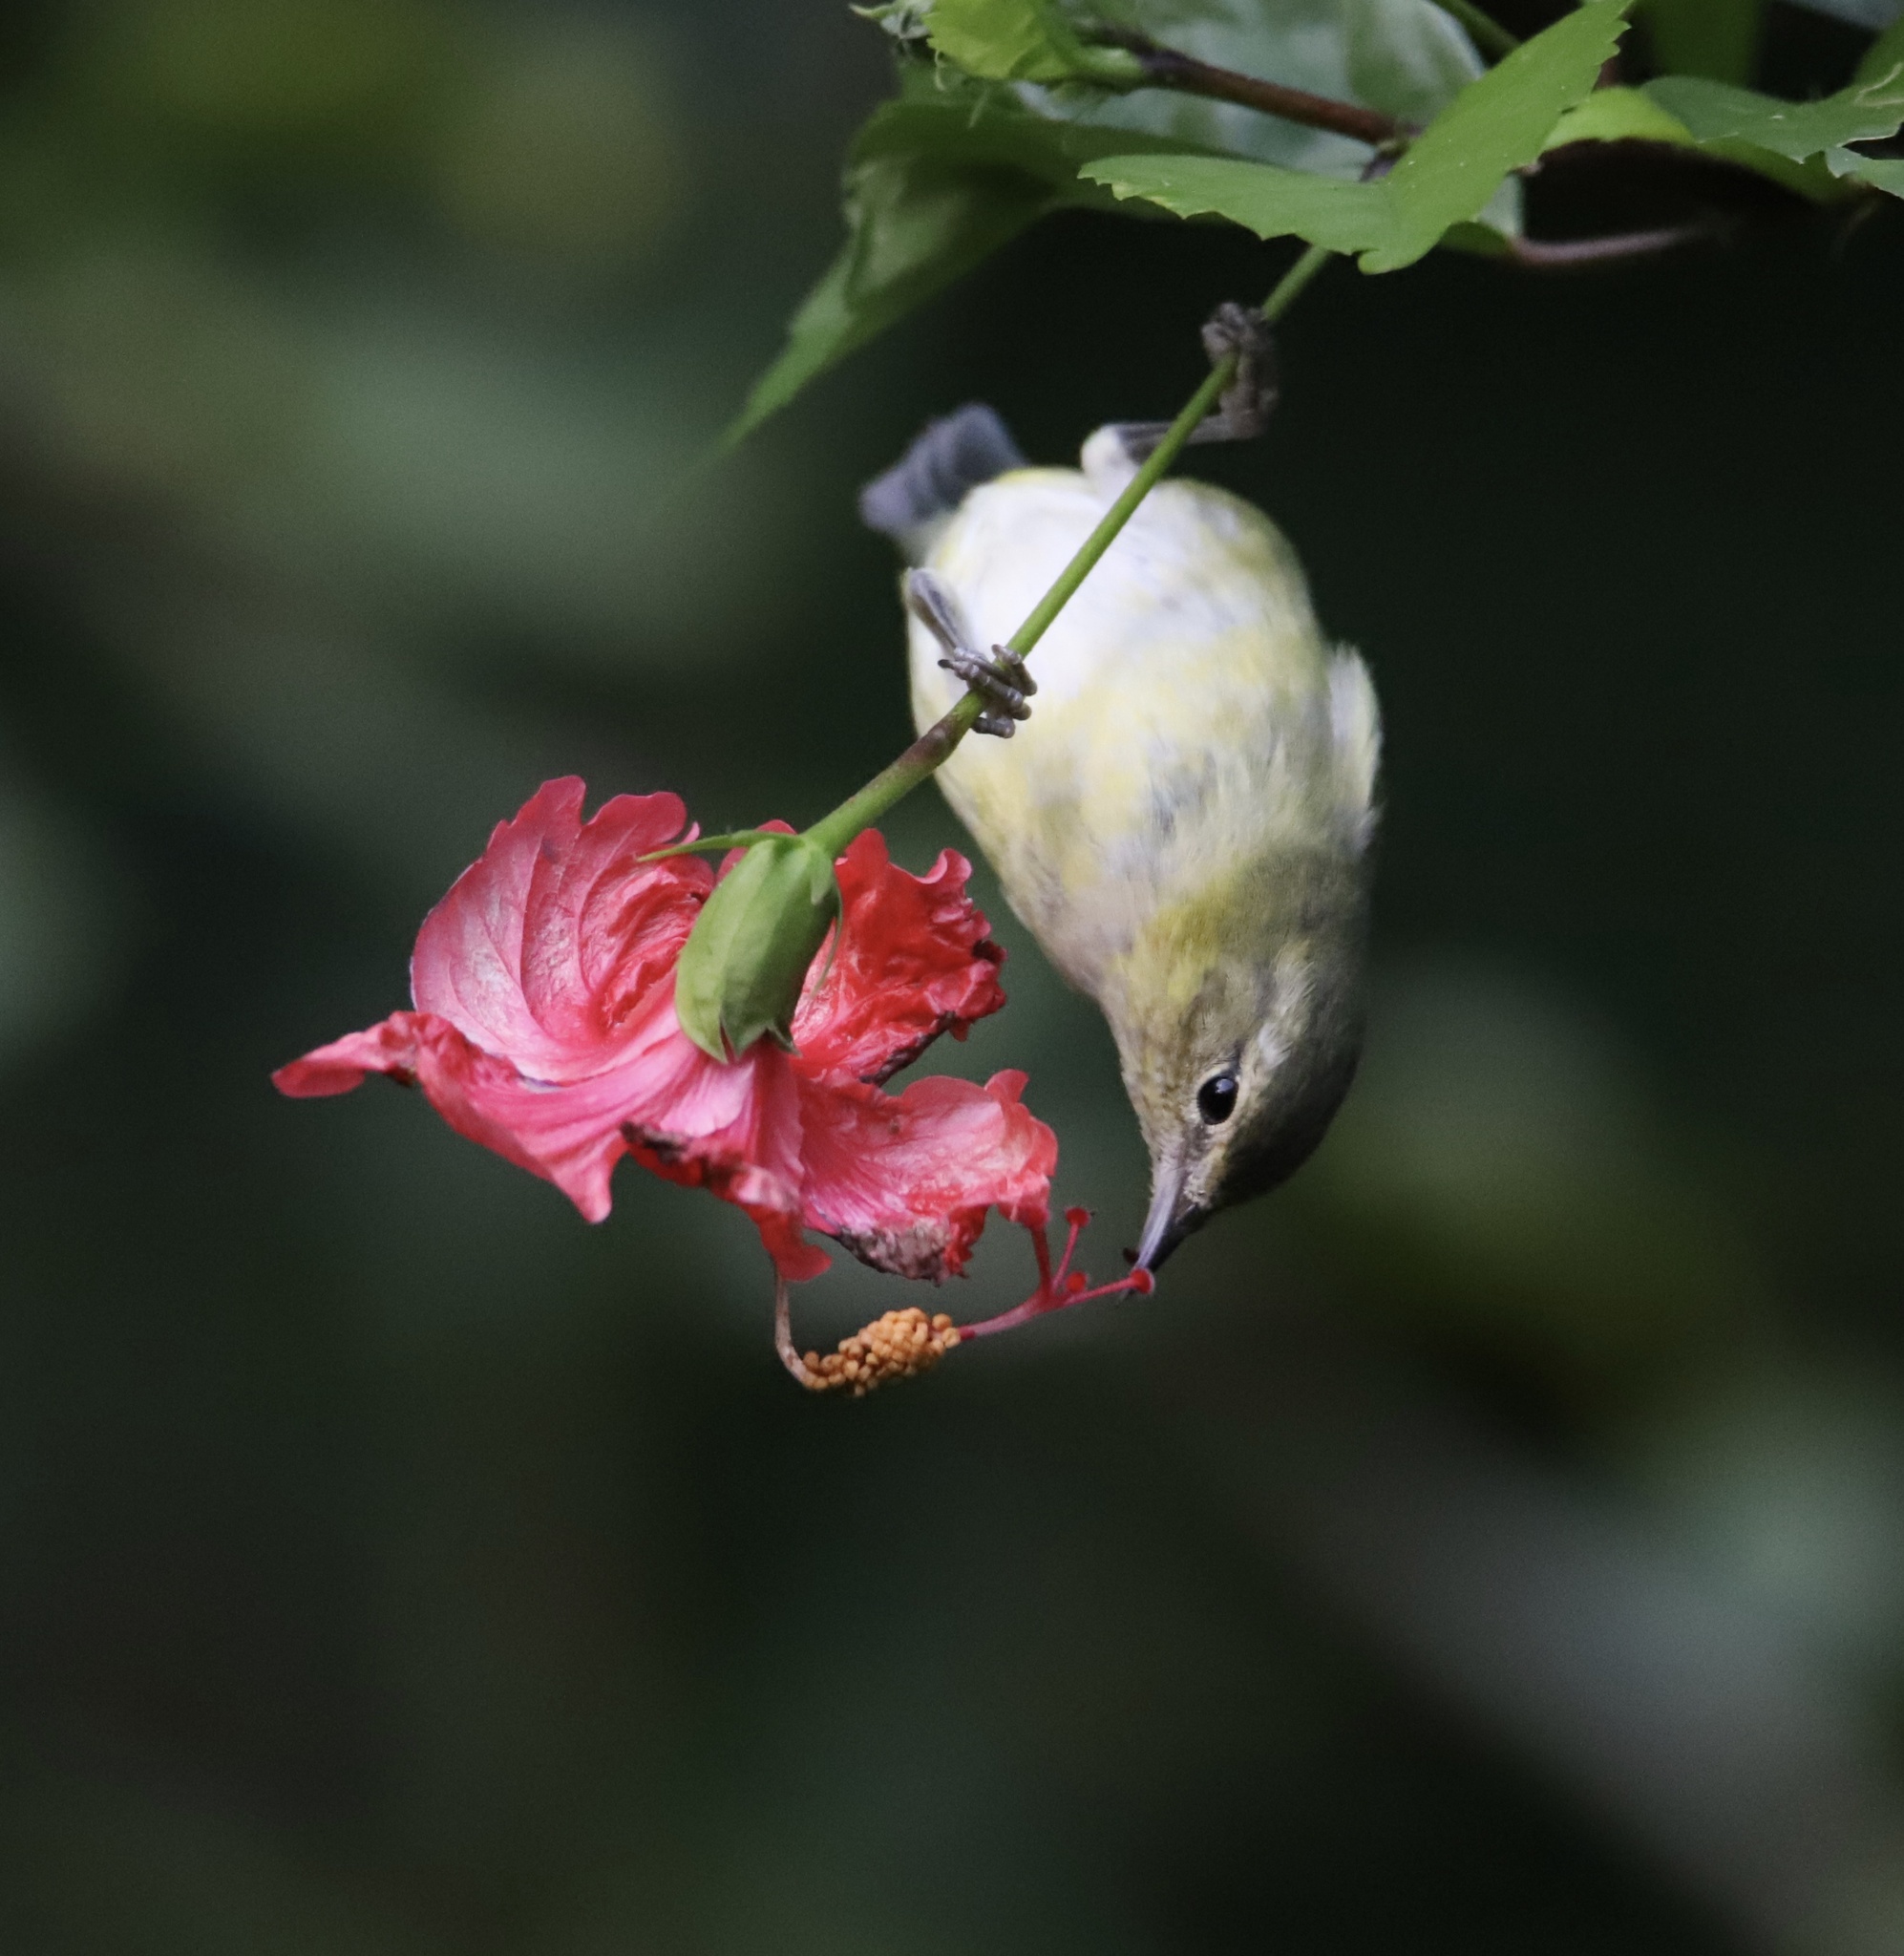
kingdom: Animalia
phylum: Chordata
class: Aves
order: Passeriformes
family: Parulidae
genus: Leiothlypis
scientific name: Leiothlypis peregrina
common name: Tennessee warbler
